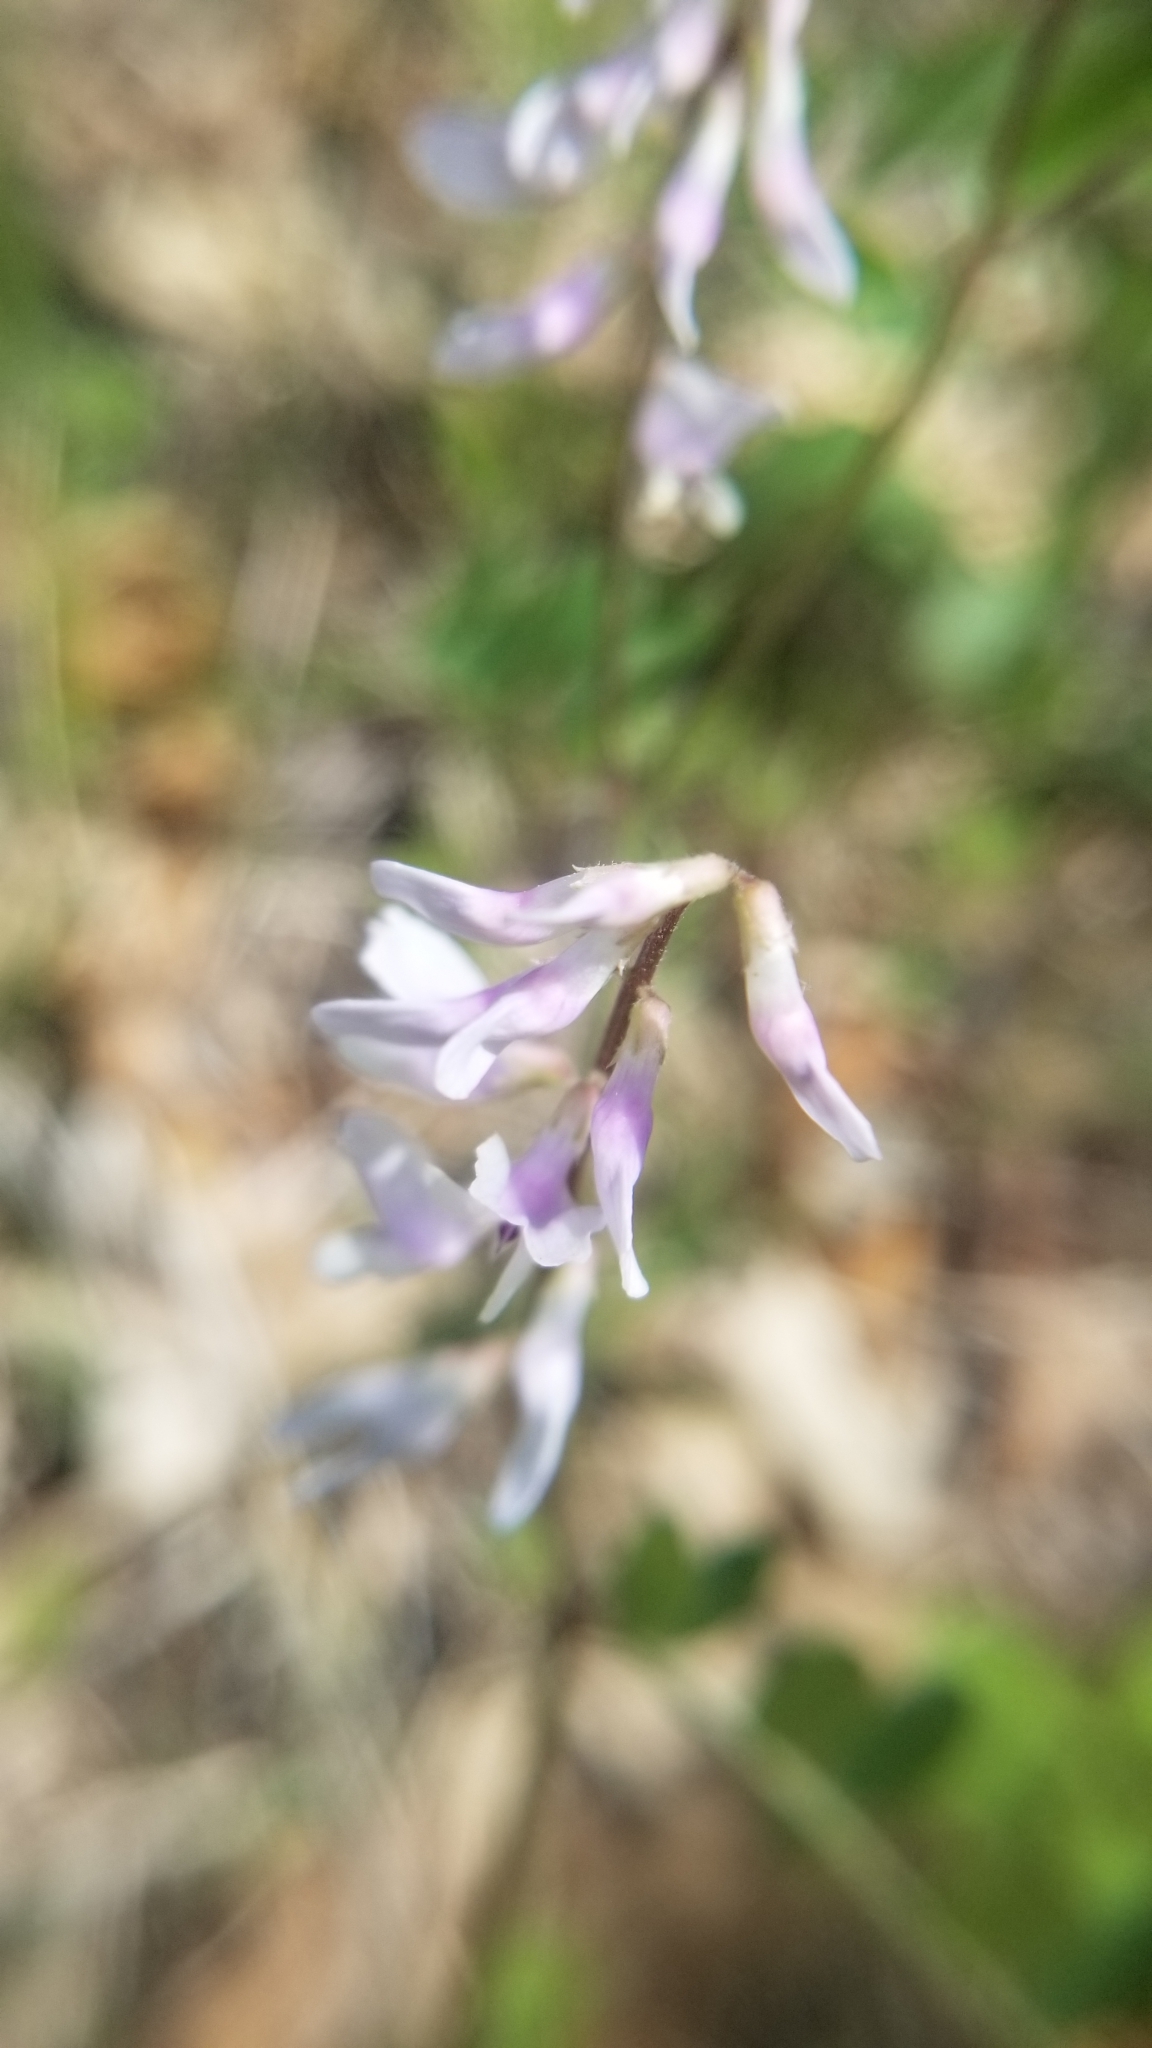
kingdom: Plantae
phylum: Tracheophyta
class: Magnoliopsida
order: Fabales
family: Fabaceae
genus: Vicia
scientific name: Vicia caroliniana
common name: Carolina vetch
